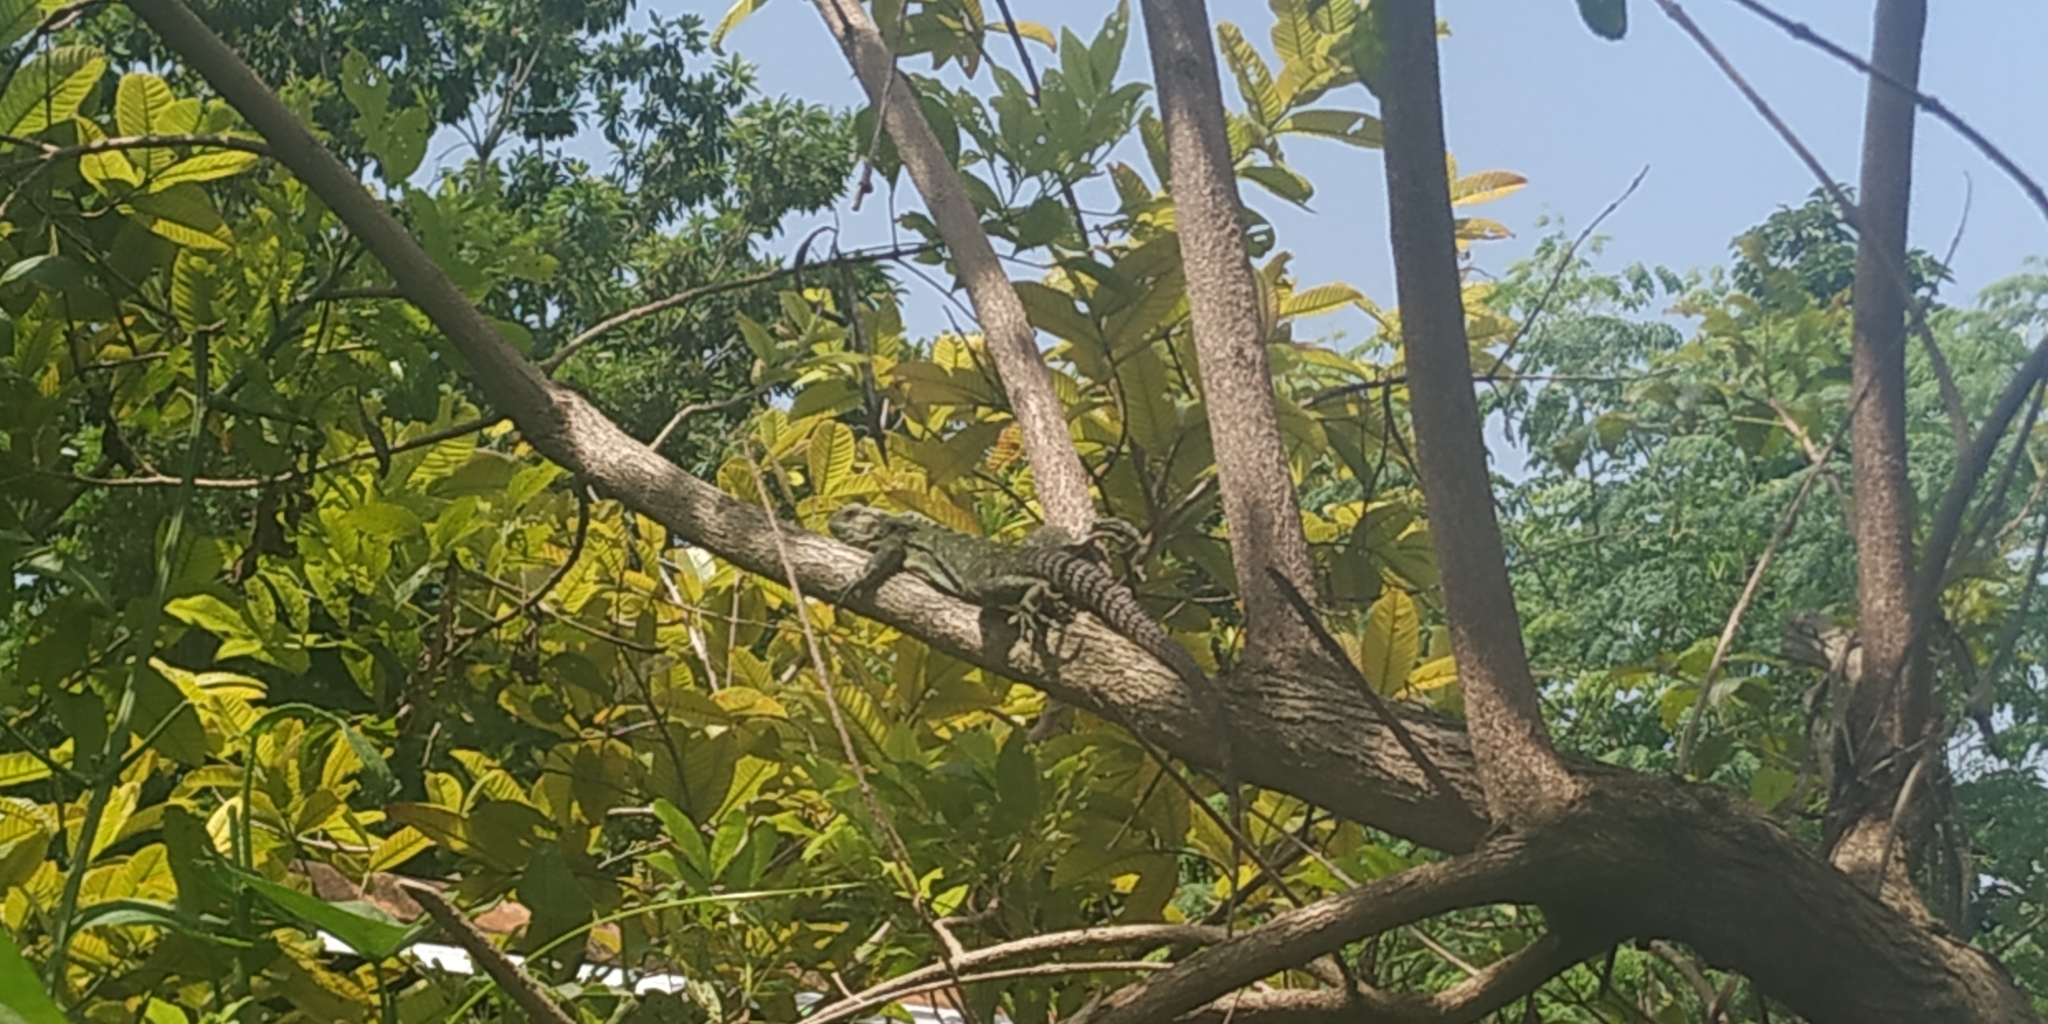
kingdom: Animalia
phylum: Chordata
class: Squamata
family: Iguanidae
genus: Ctenosaura
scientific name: Ctenosaura acanthura
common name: Northeastern spinytail iguana
